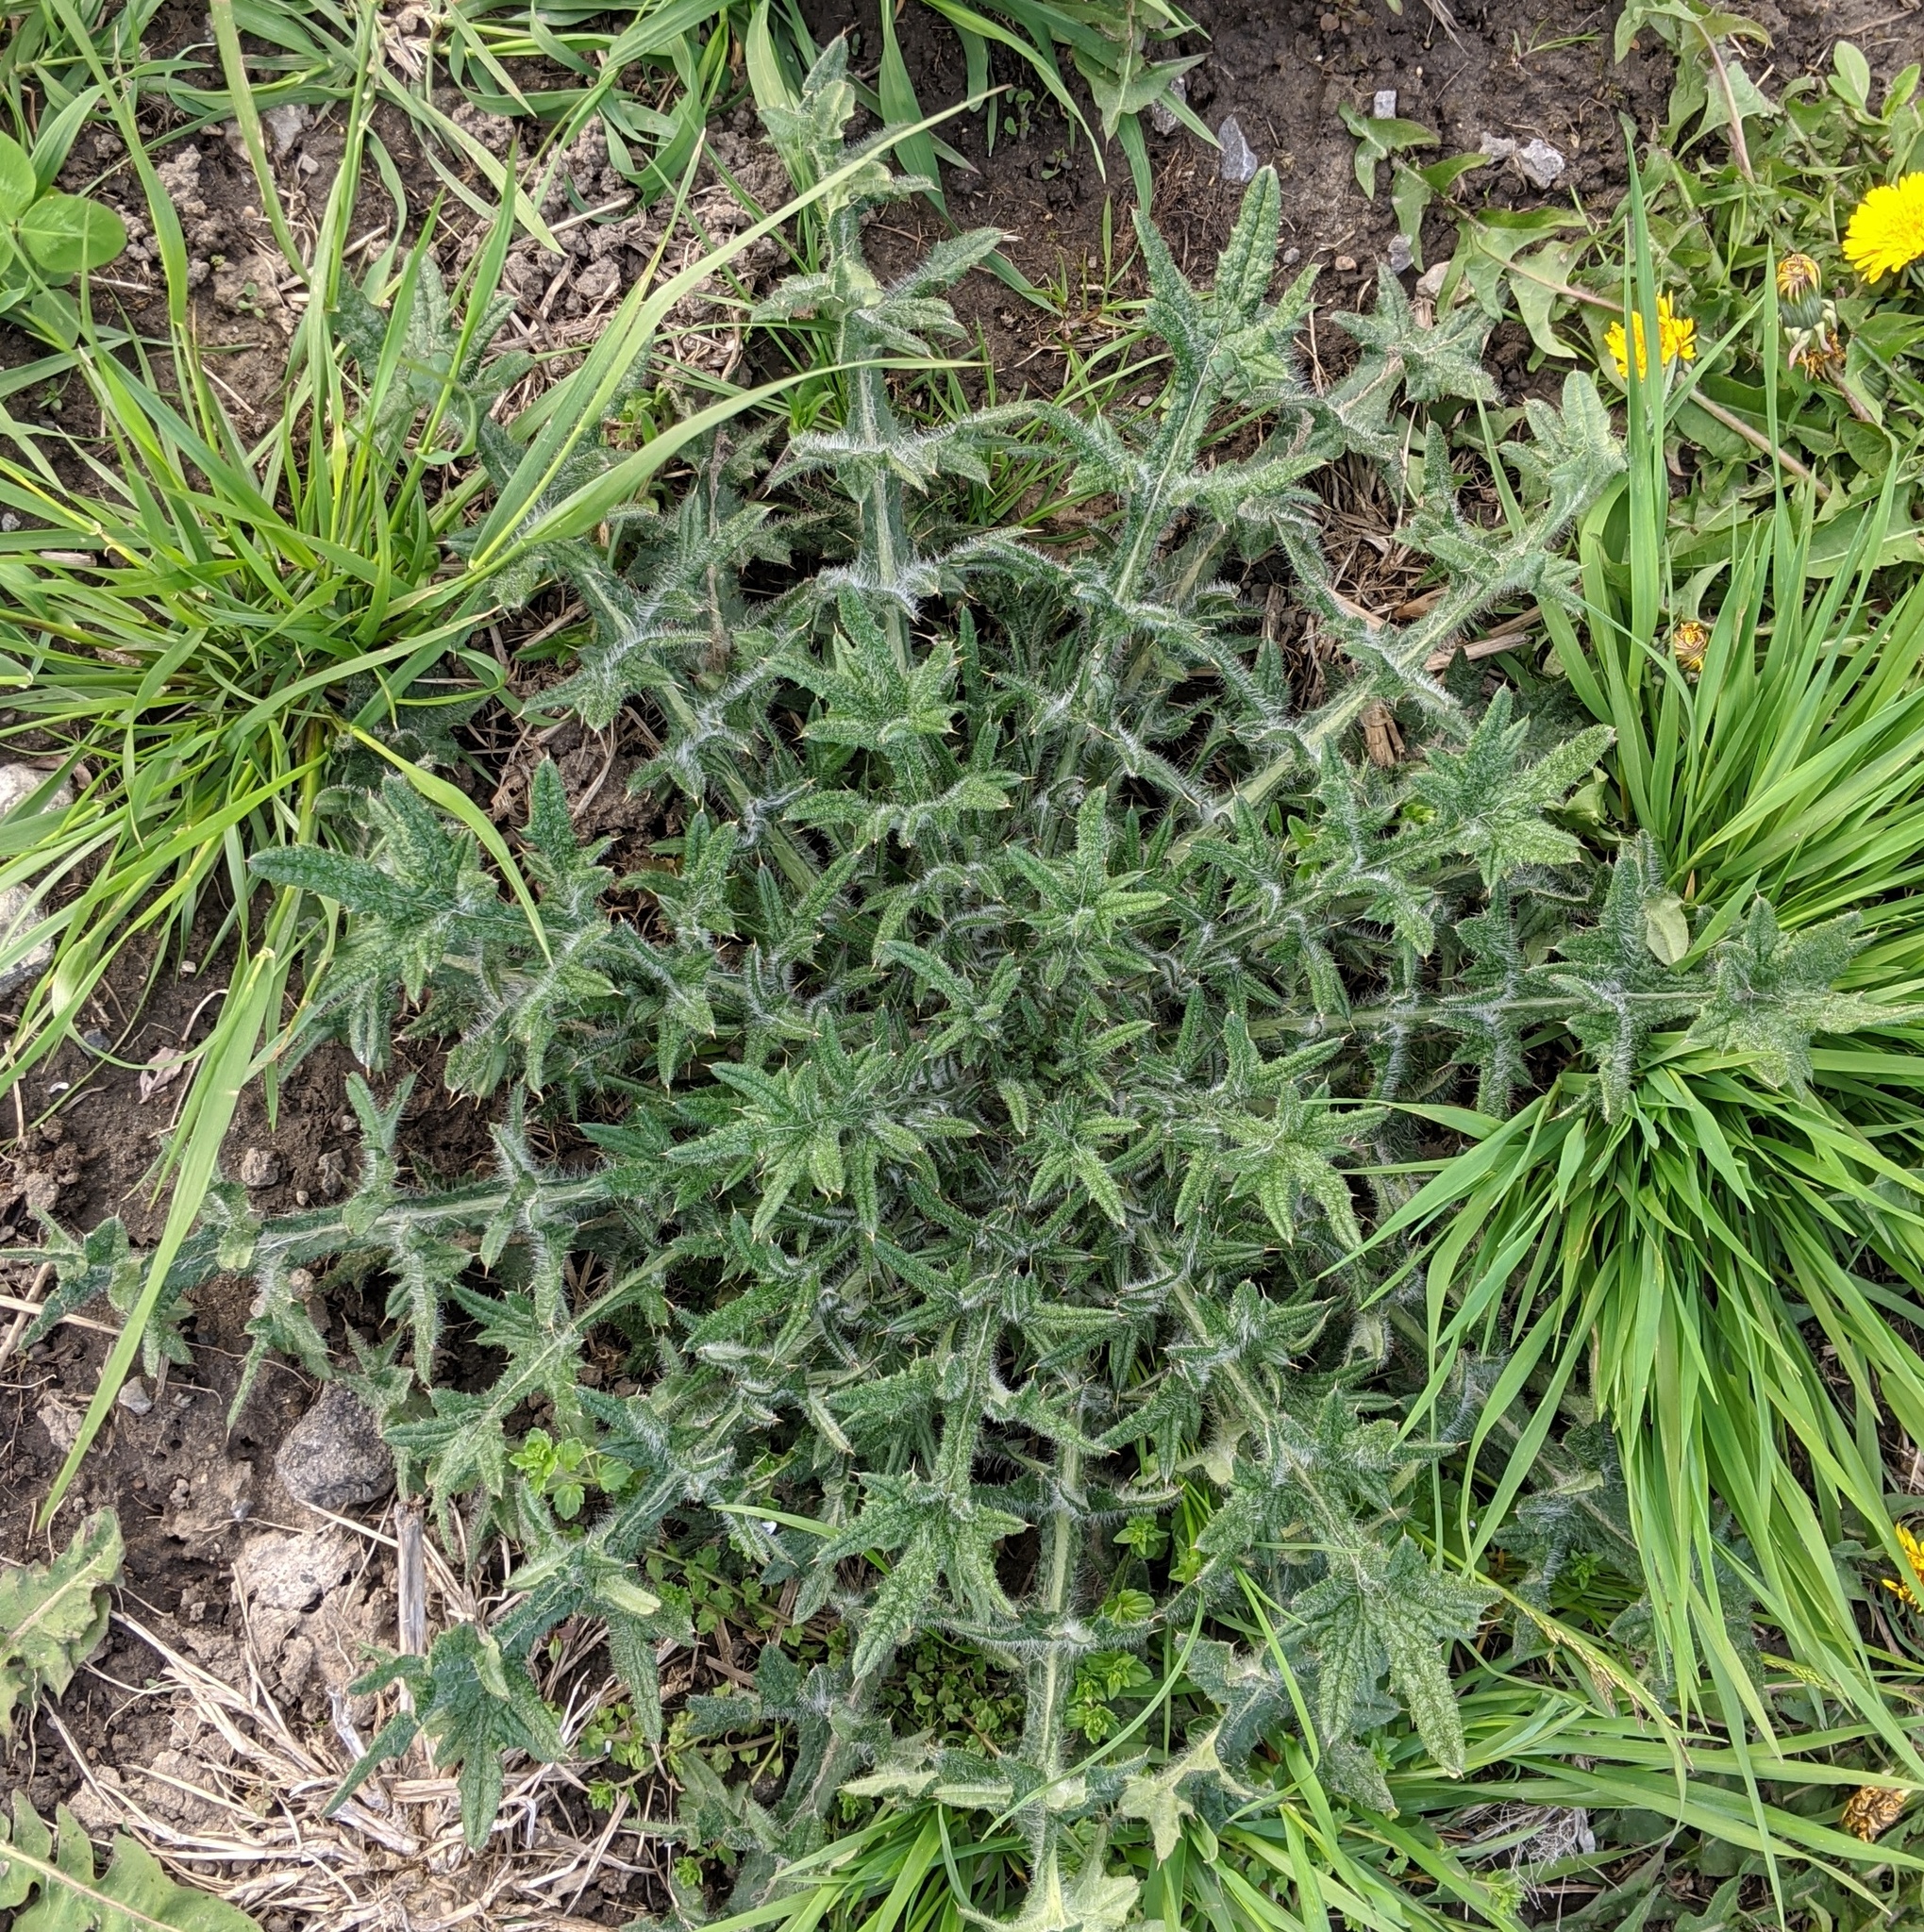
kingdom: Plantae
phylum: Tracheophyta
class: Magnoliopsida
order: Asterales
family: Asteraceae
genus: Cirsium
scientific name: Cirsium vulgare
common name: Bull thistle
